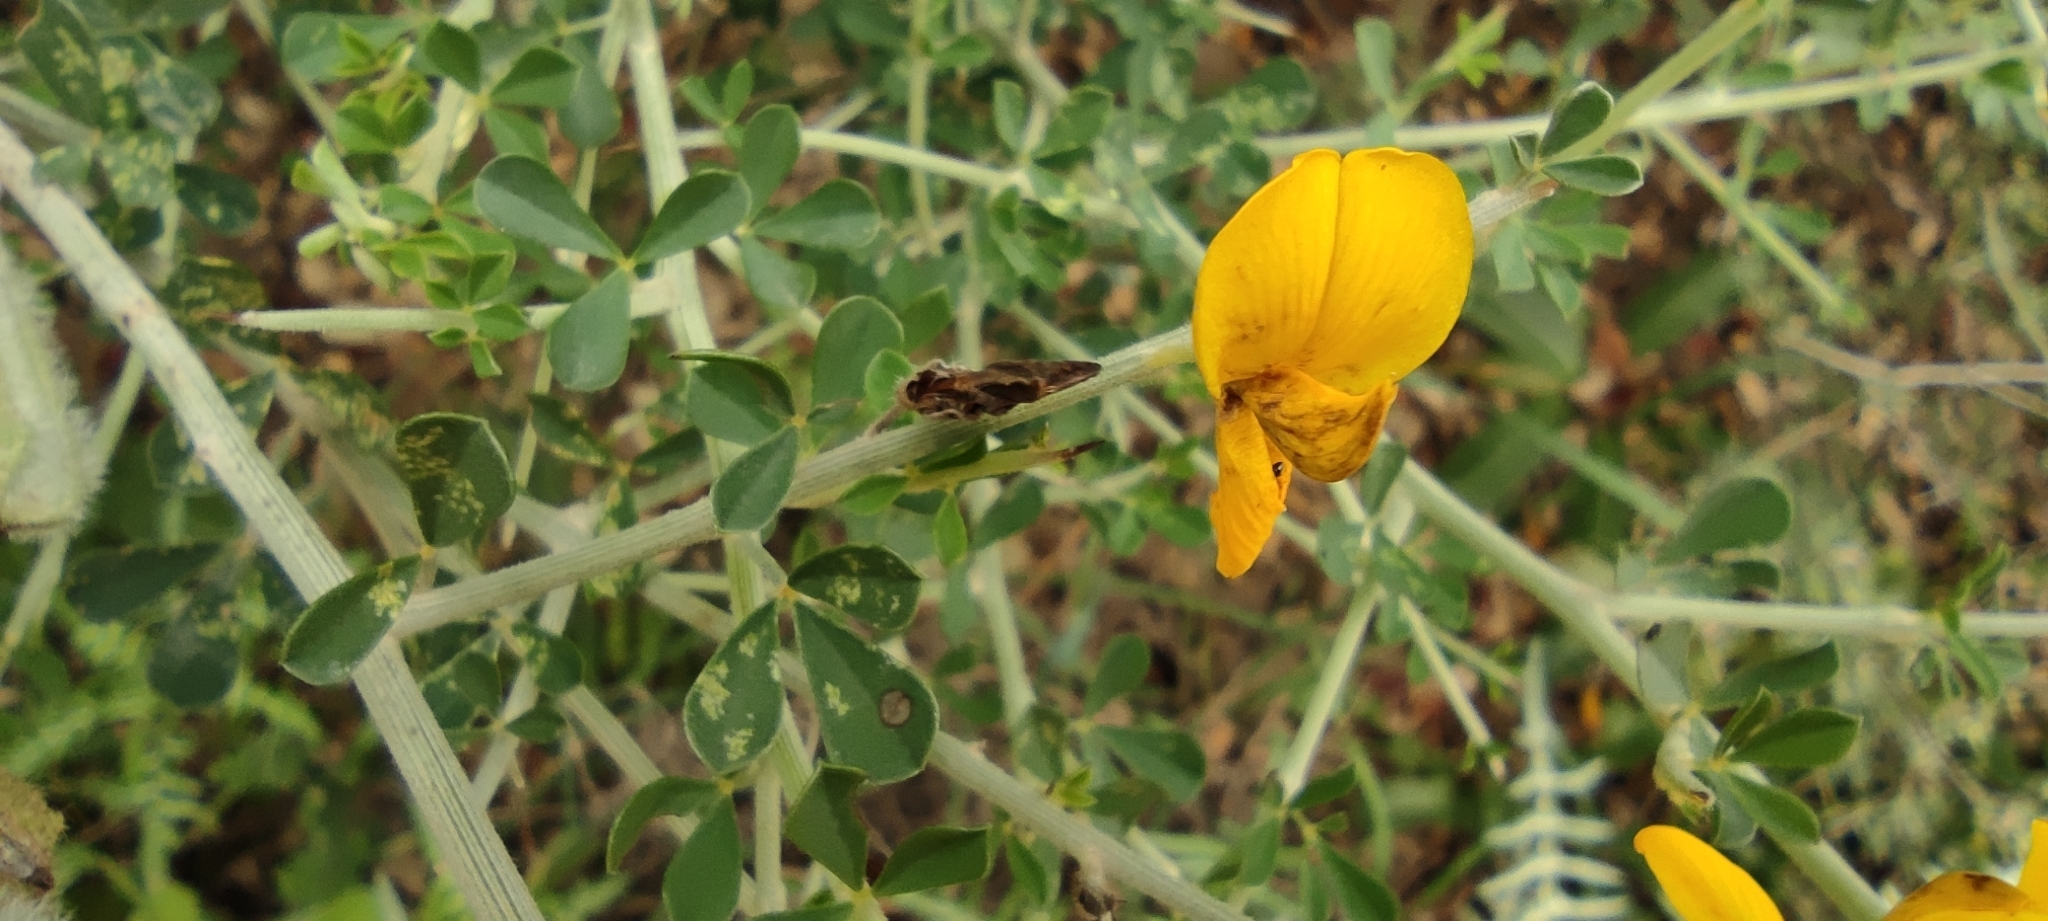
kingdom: Plantae
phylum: Tracheophyta
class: Magnoliopsida
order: Fabales
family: Fabaceae
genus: Calicotome
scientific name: Calicotome villosa
